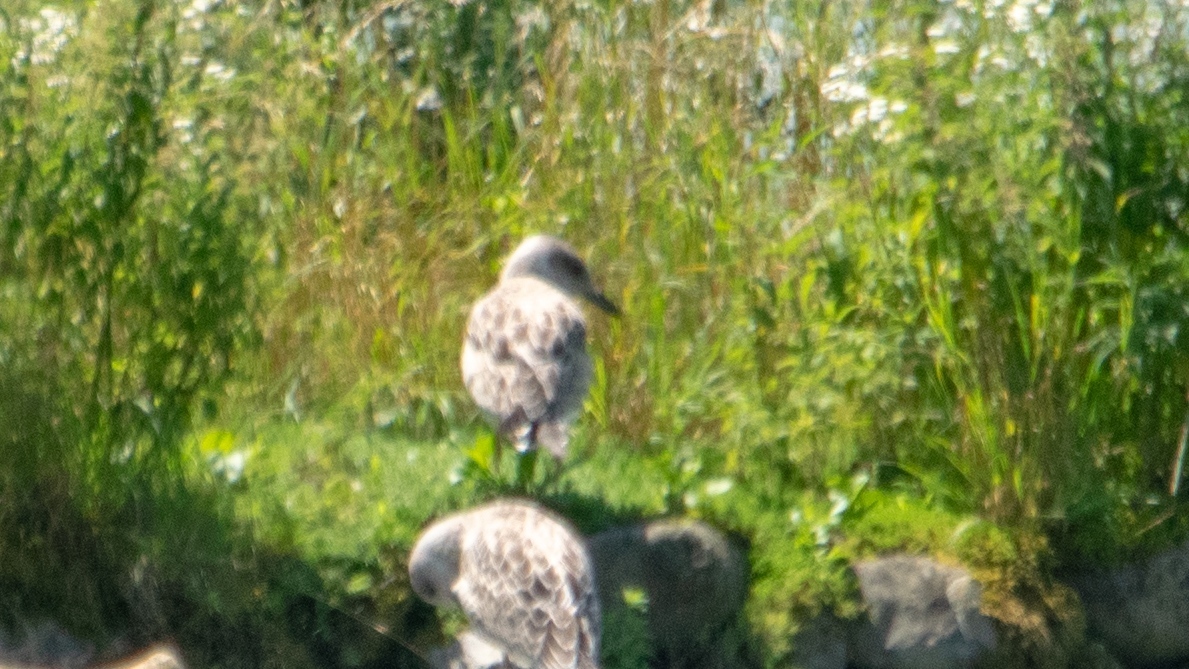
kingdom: Animalia
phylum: Chordata
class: Aves
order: Charadriiformes
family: Laridae
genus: Larus
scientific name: Larus michahellis
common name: Yellow-legged gull
